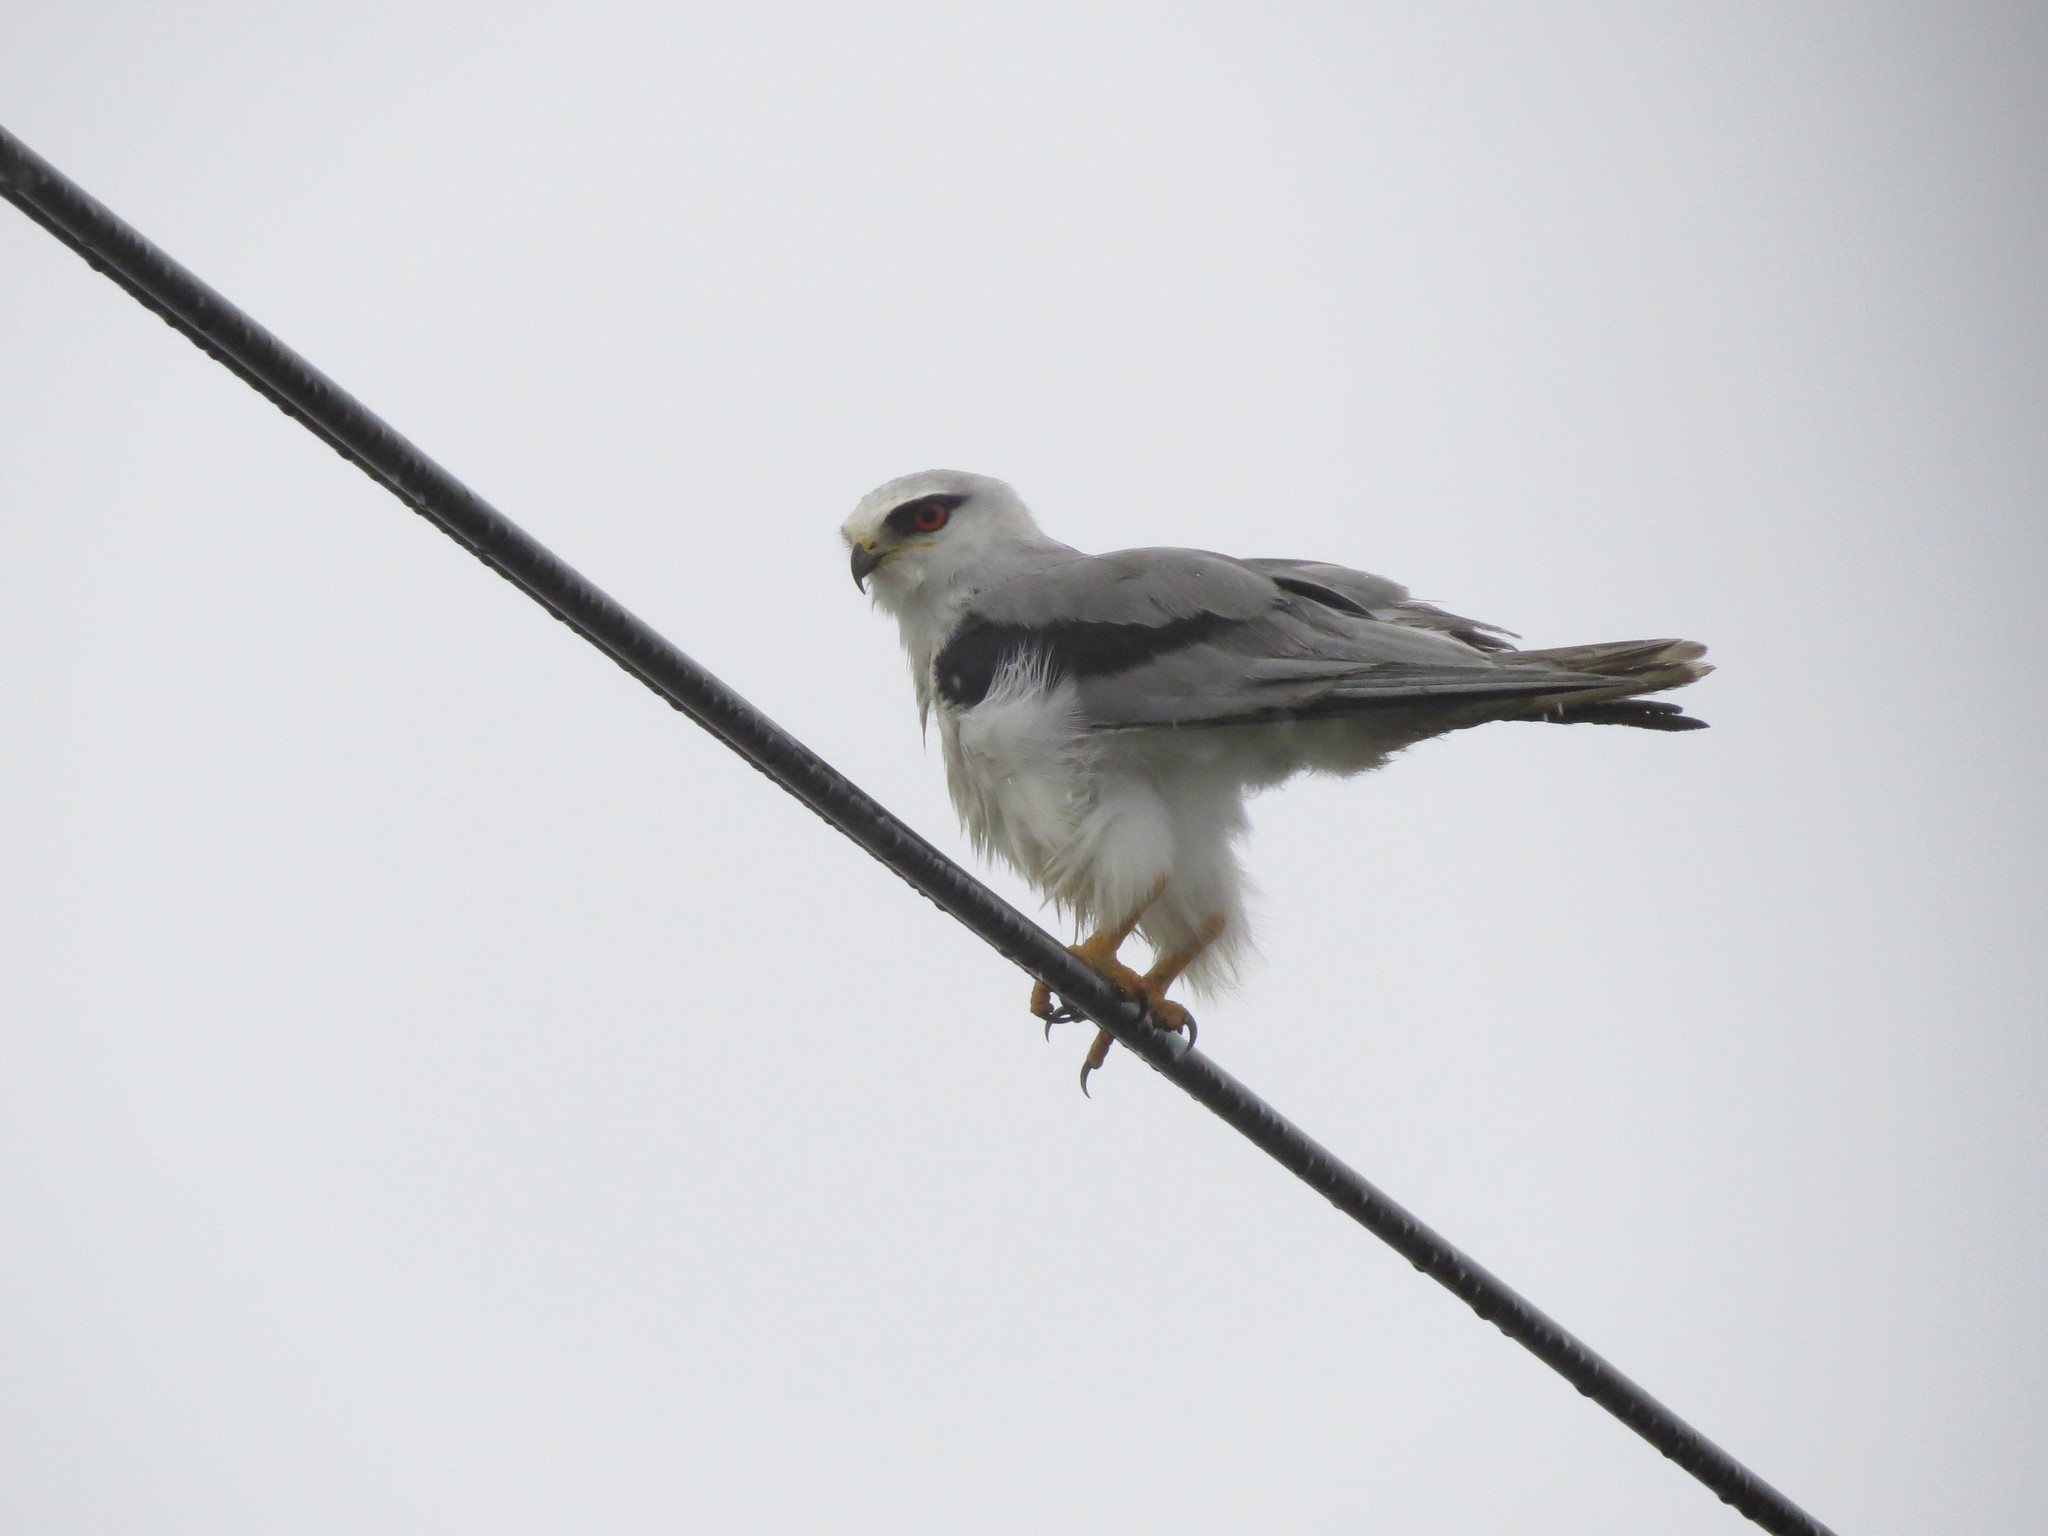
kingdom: Animalia
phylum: Chordata
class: Aves
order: Accipitriformes
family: Accipitridae
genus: Elanus
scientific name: Elanus caeruleus
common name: Black-winged kite
